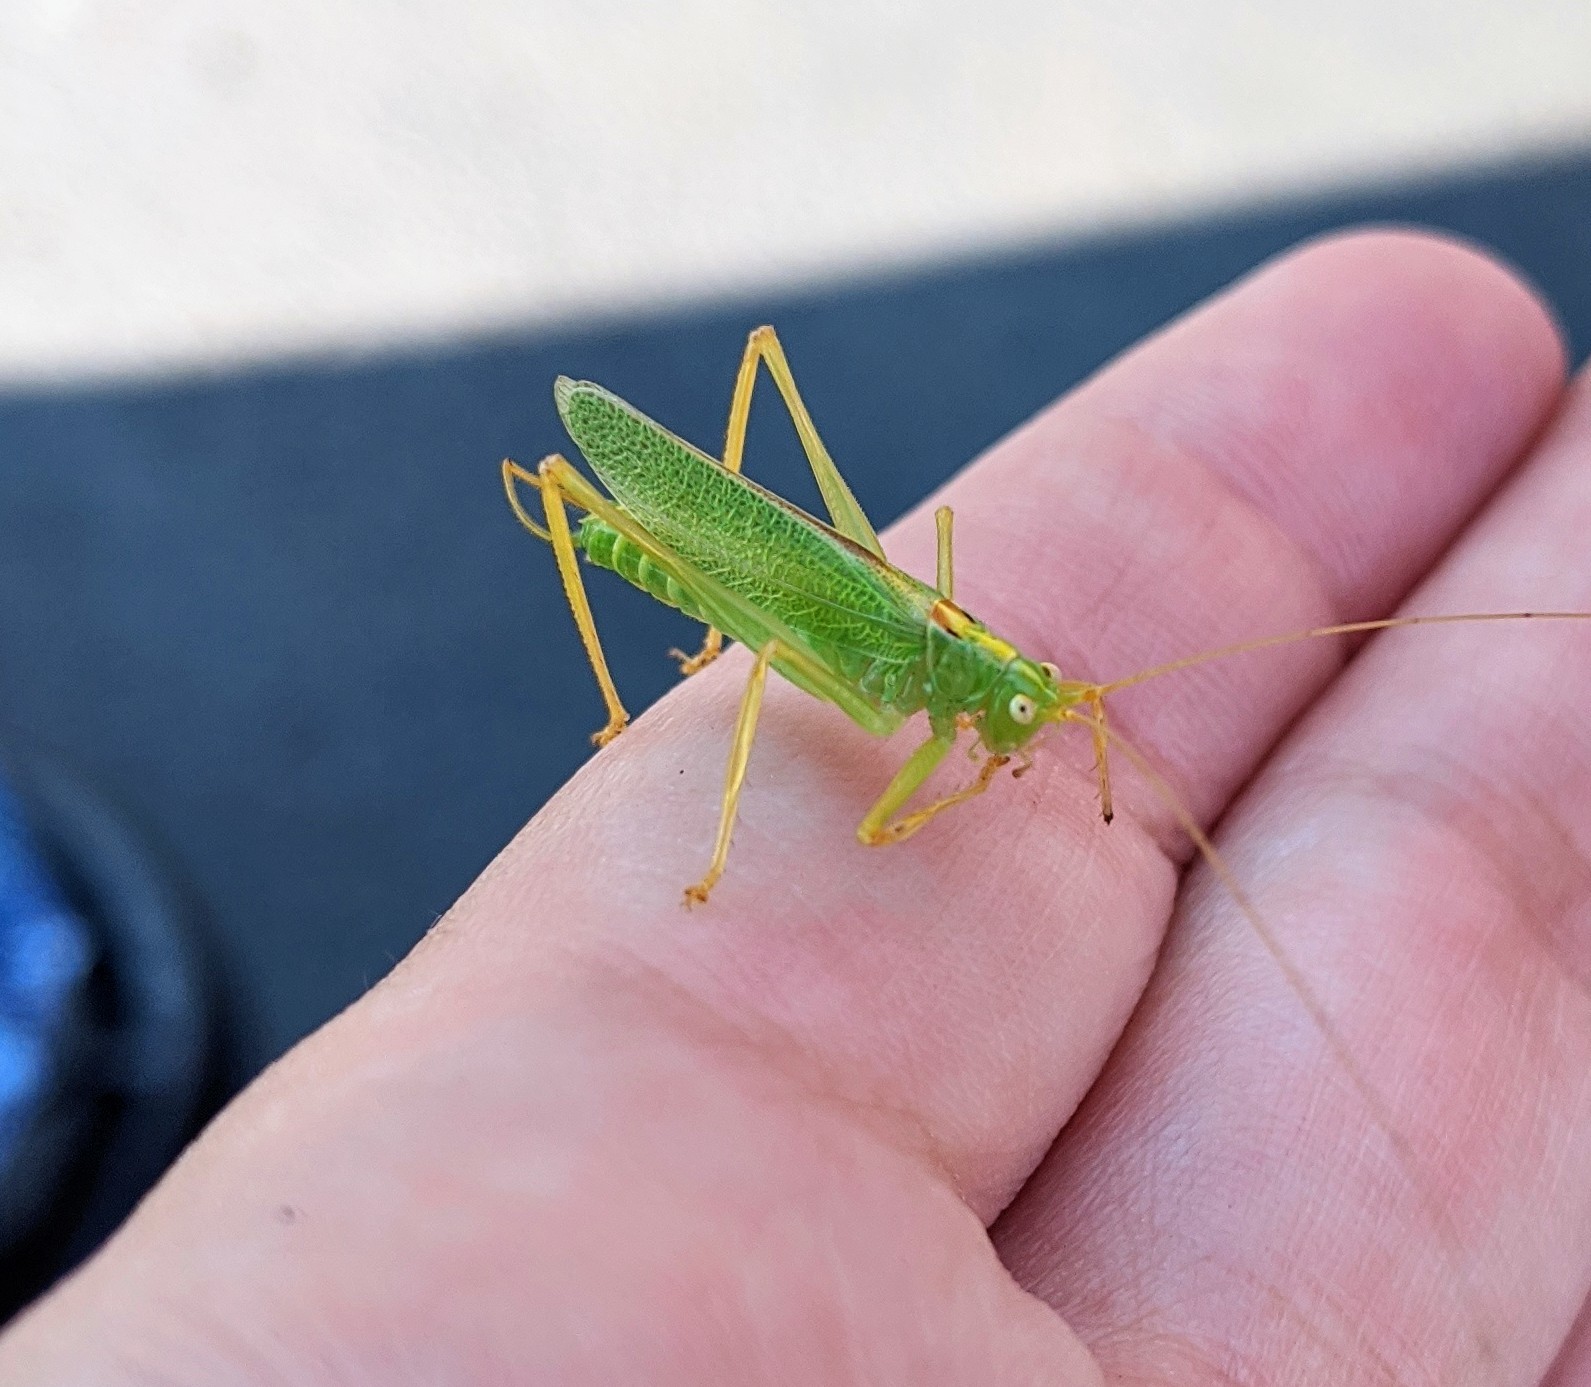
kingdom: Animalia
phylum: Arthropoda
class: Insecta
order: Orthoptera
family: Tettigoniidae
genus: Meconema
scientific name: Meconema thalassinum
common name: Oak bush-cricket
